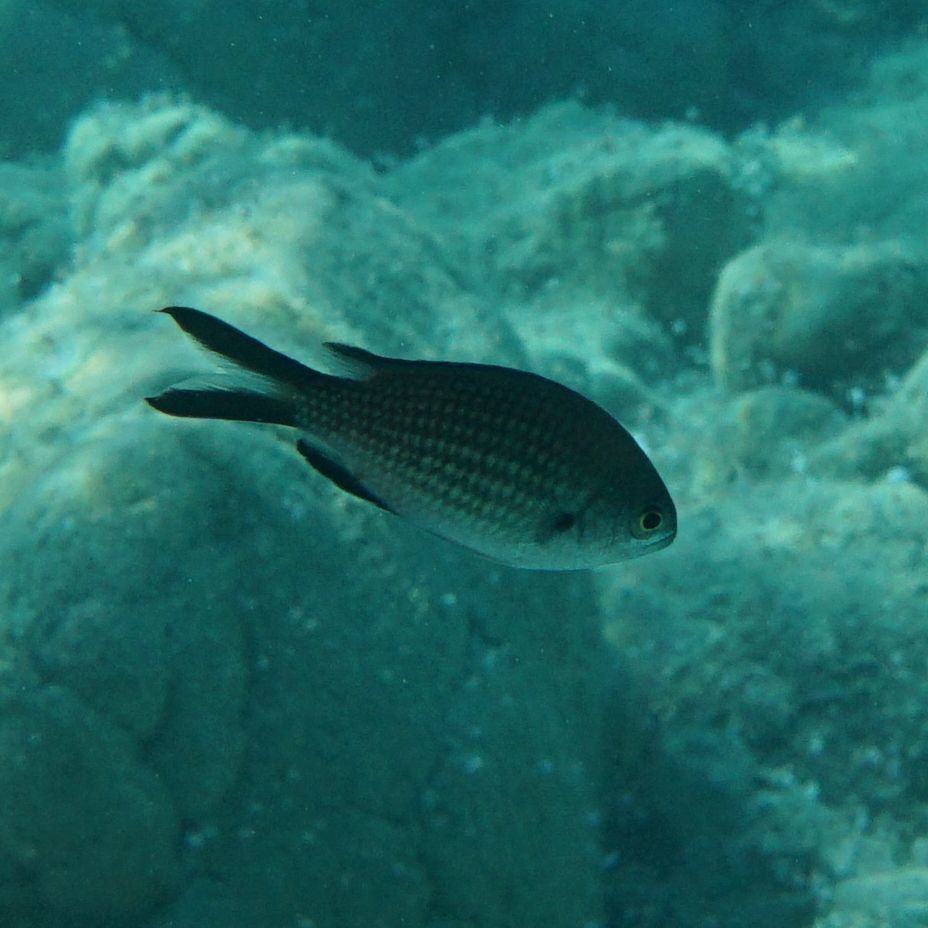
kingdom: Animalia
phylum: Chordata
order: Perciformes
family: Pomacentridae
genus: Chromis
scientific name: Chromis chromis
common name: Damselfish
